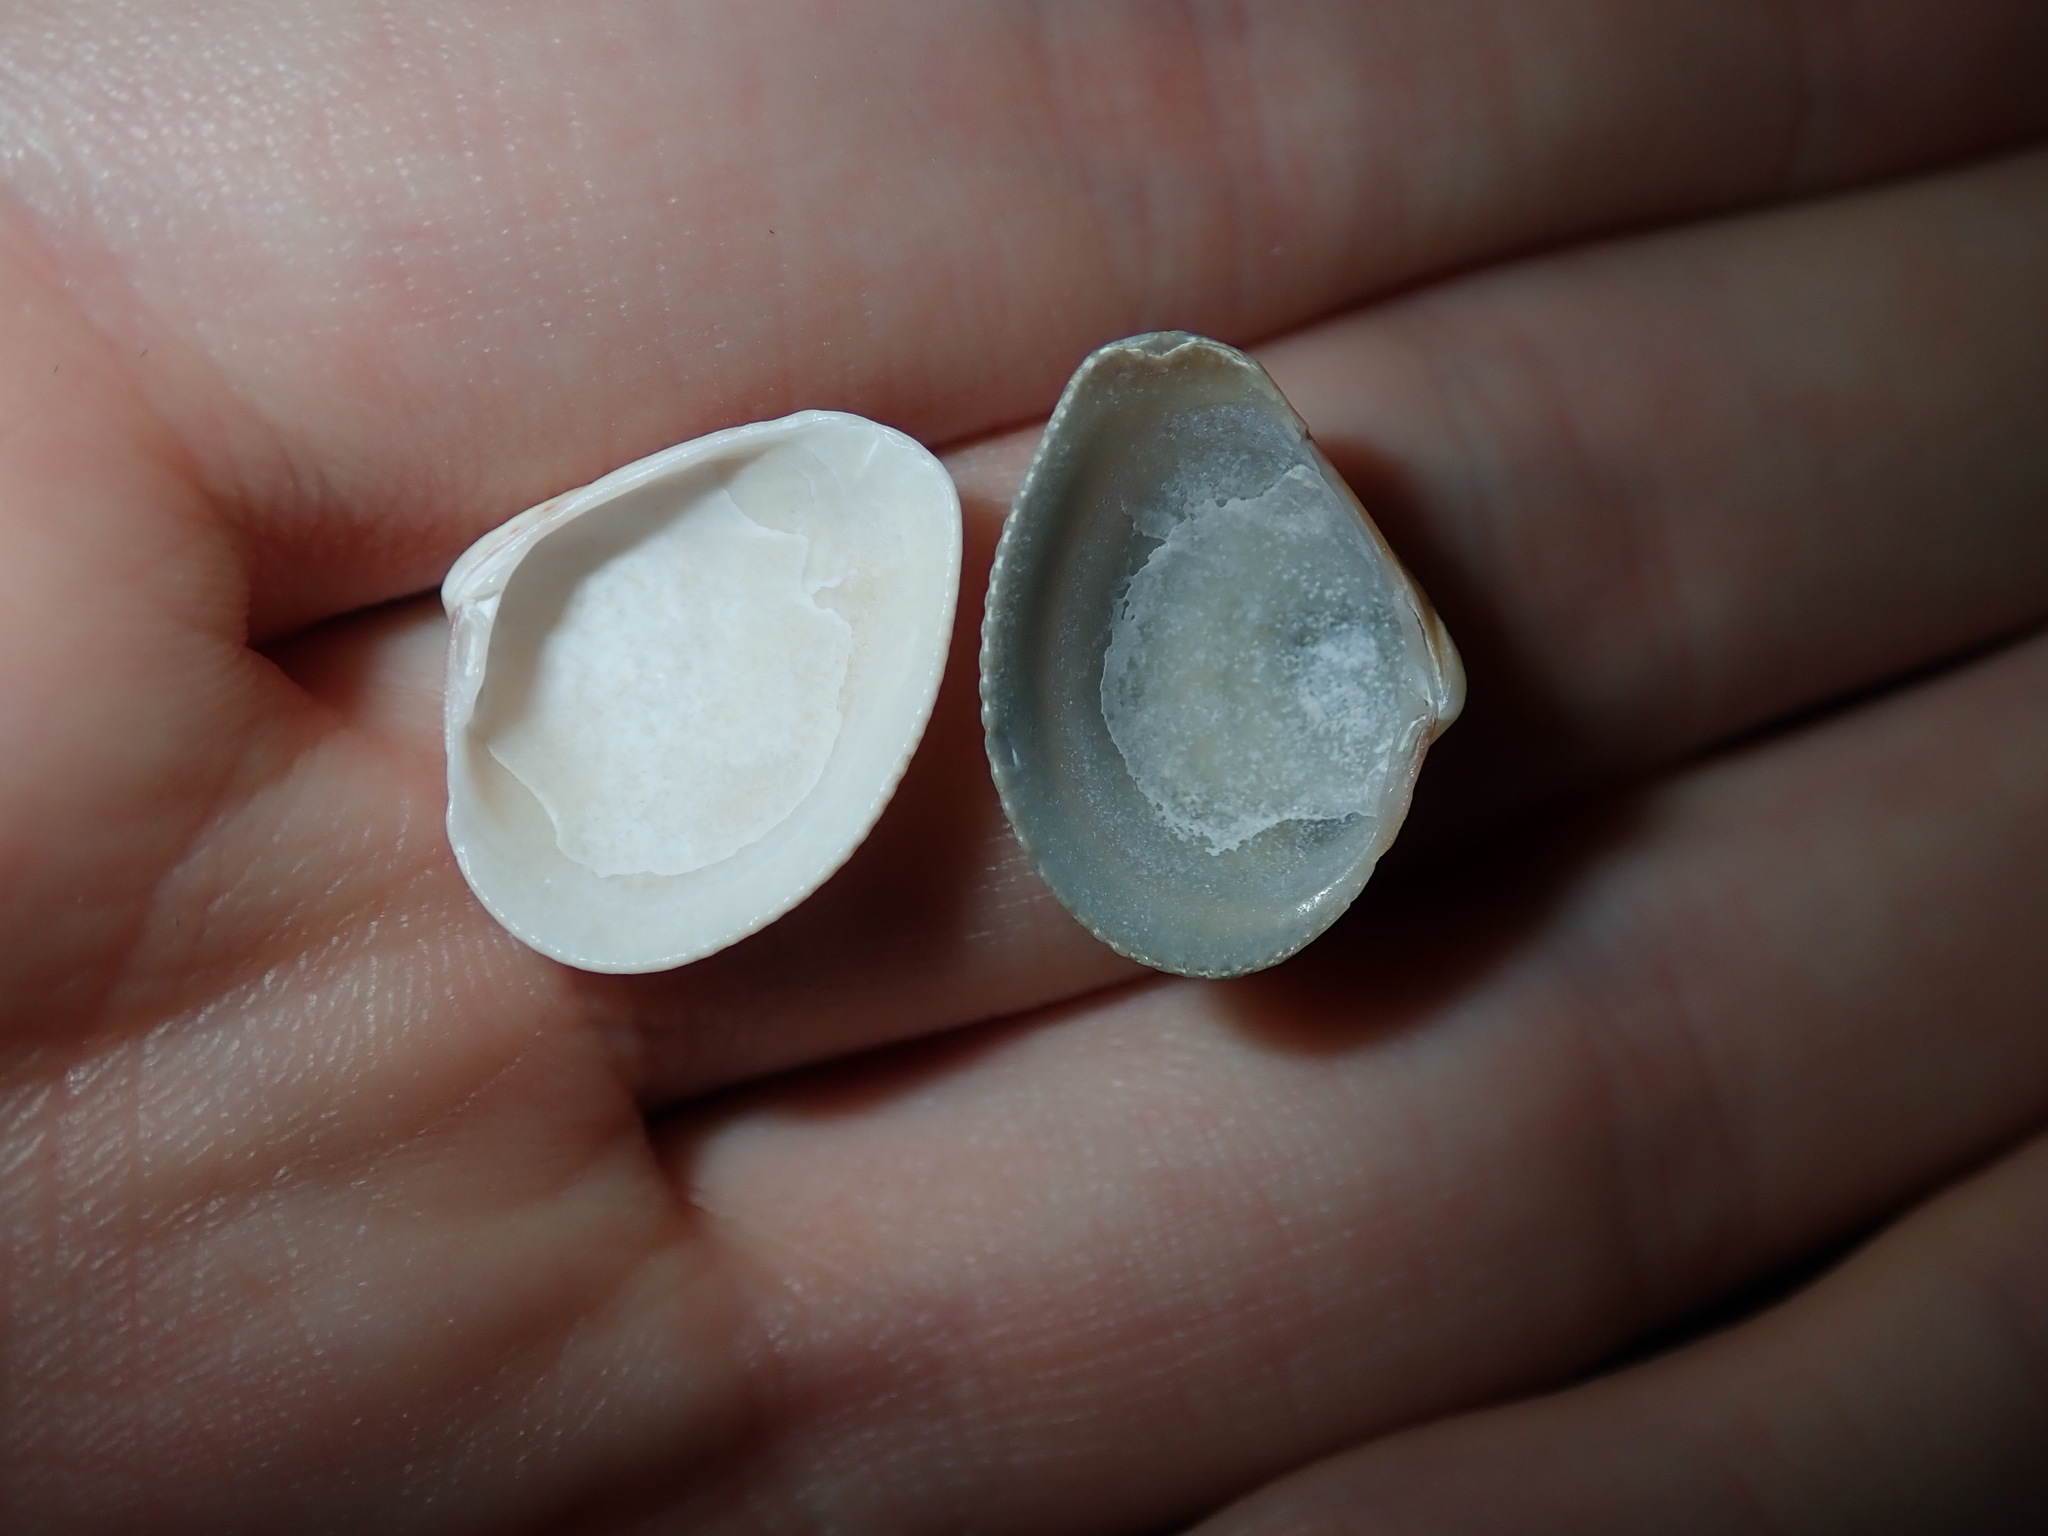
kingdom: Animalia
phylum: Mollusca
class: Bivalvia
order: Venerida
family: Veneridae
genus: Chioneryx
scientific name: Chioneryx cardioides
